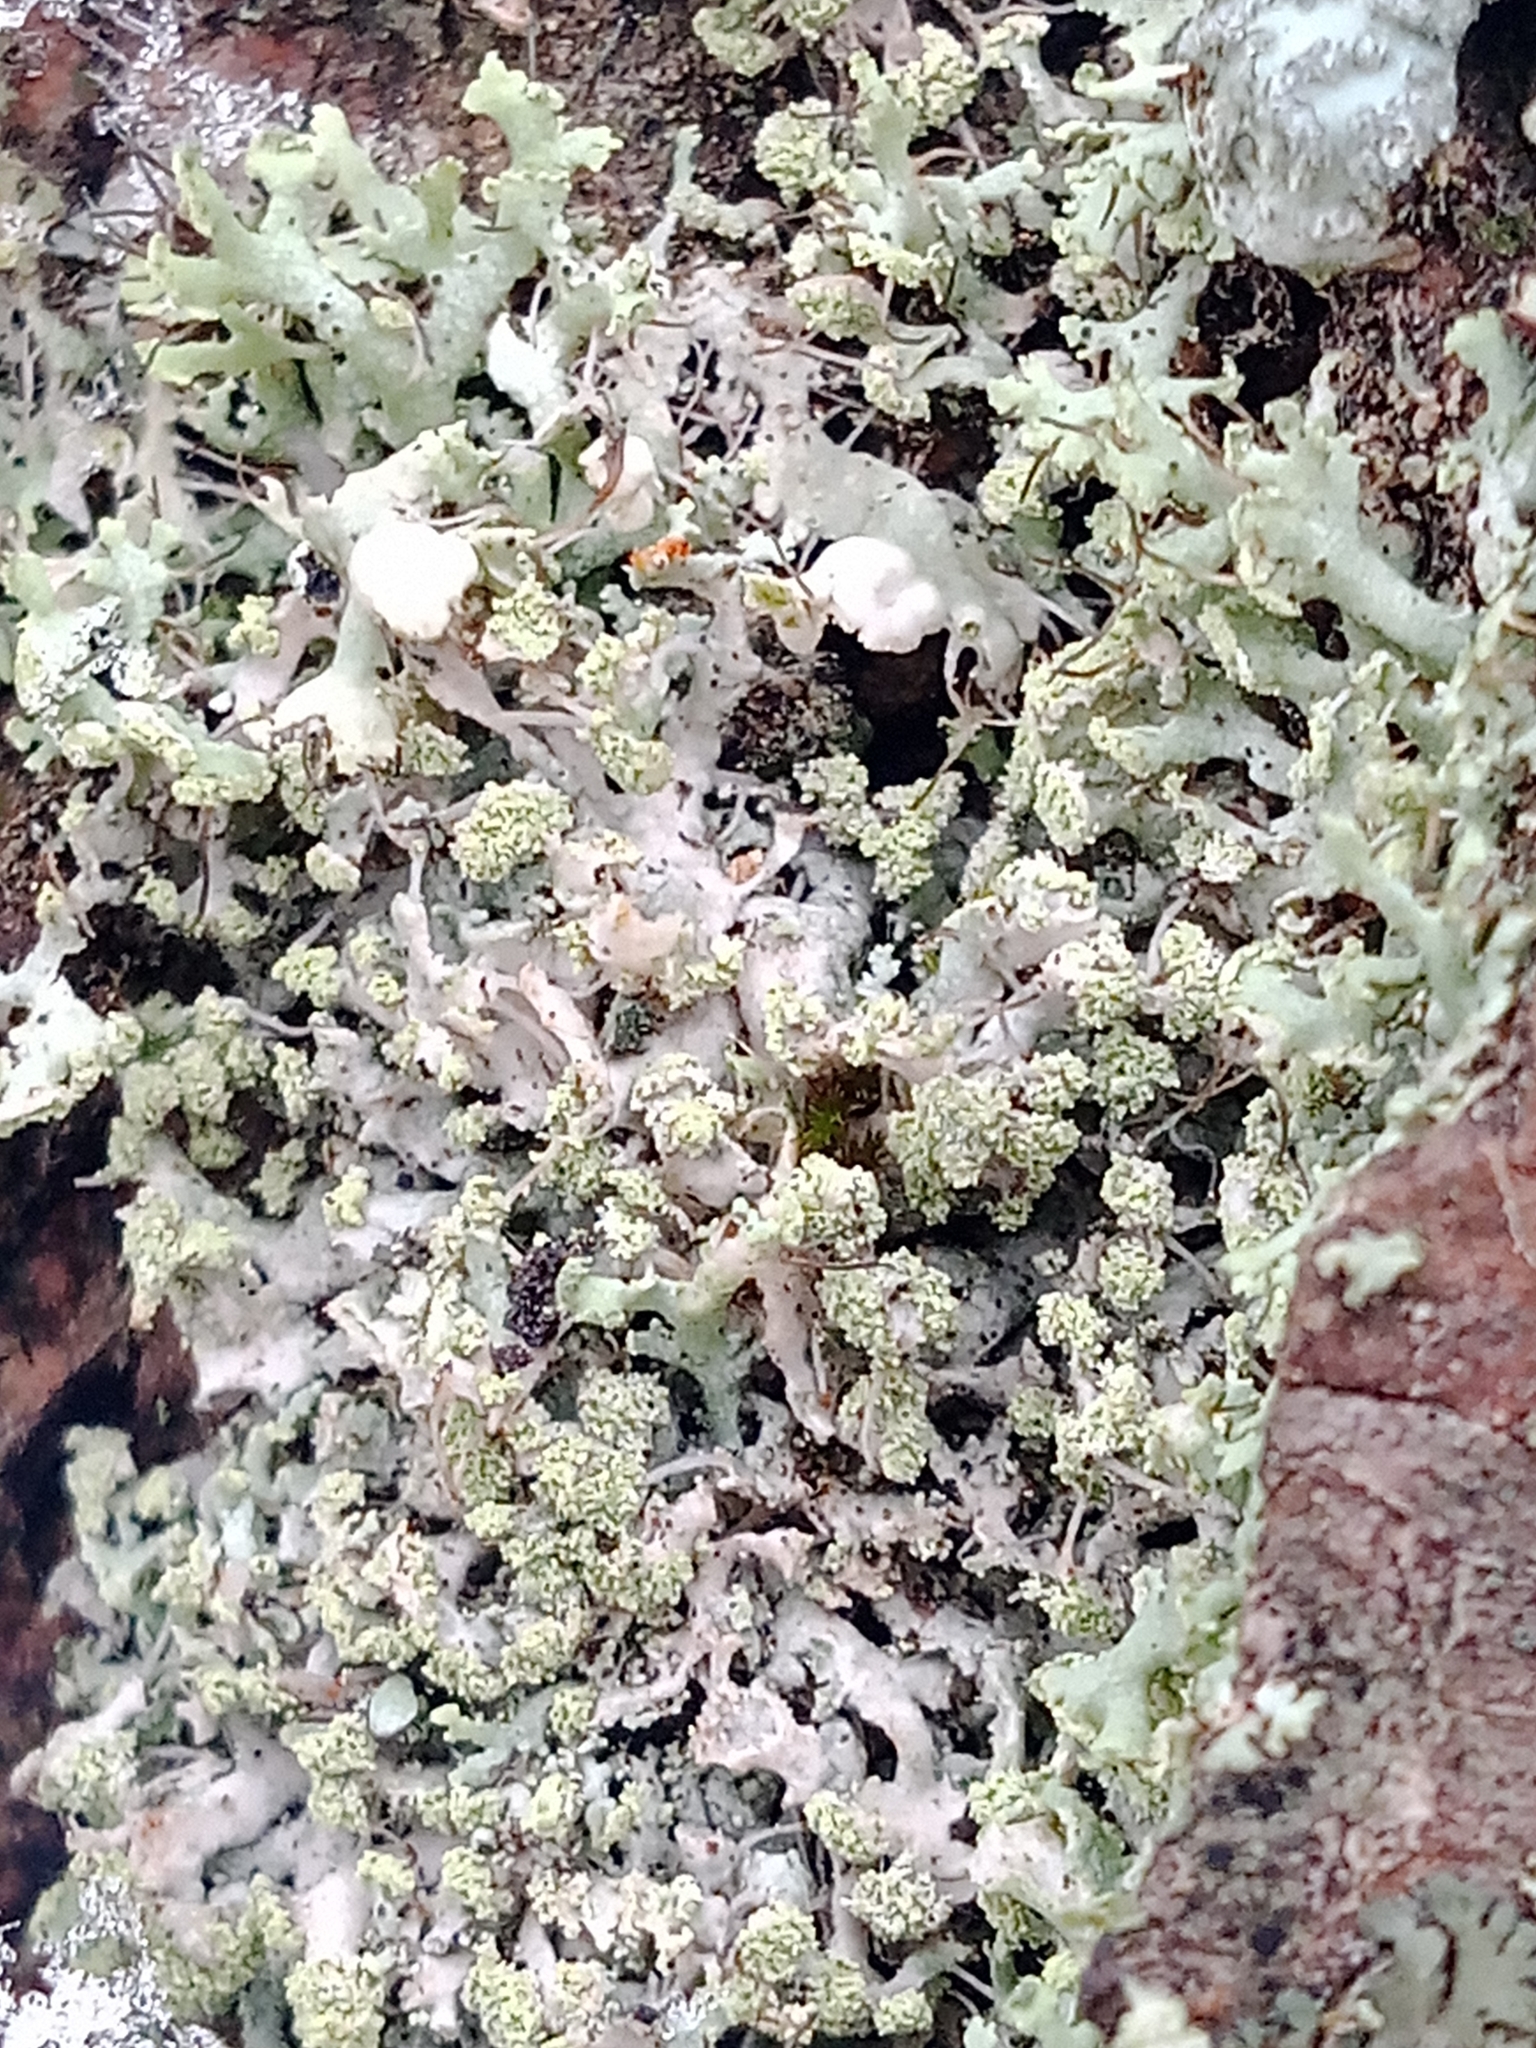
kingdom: Fungi
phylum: Ascomycota
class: Lecanoromycetes
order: Caliciales
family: Physciaceae
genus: Physcia
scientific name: Physcia tenella
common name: Fringed rosette lichen
